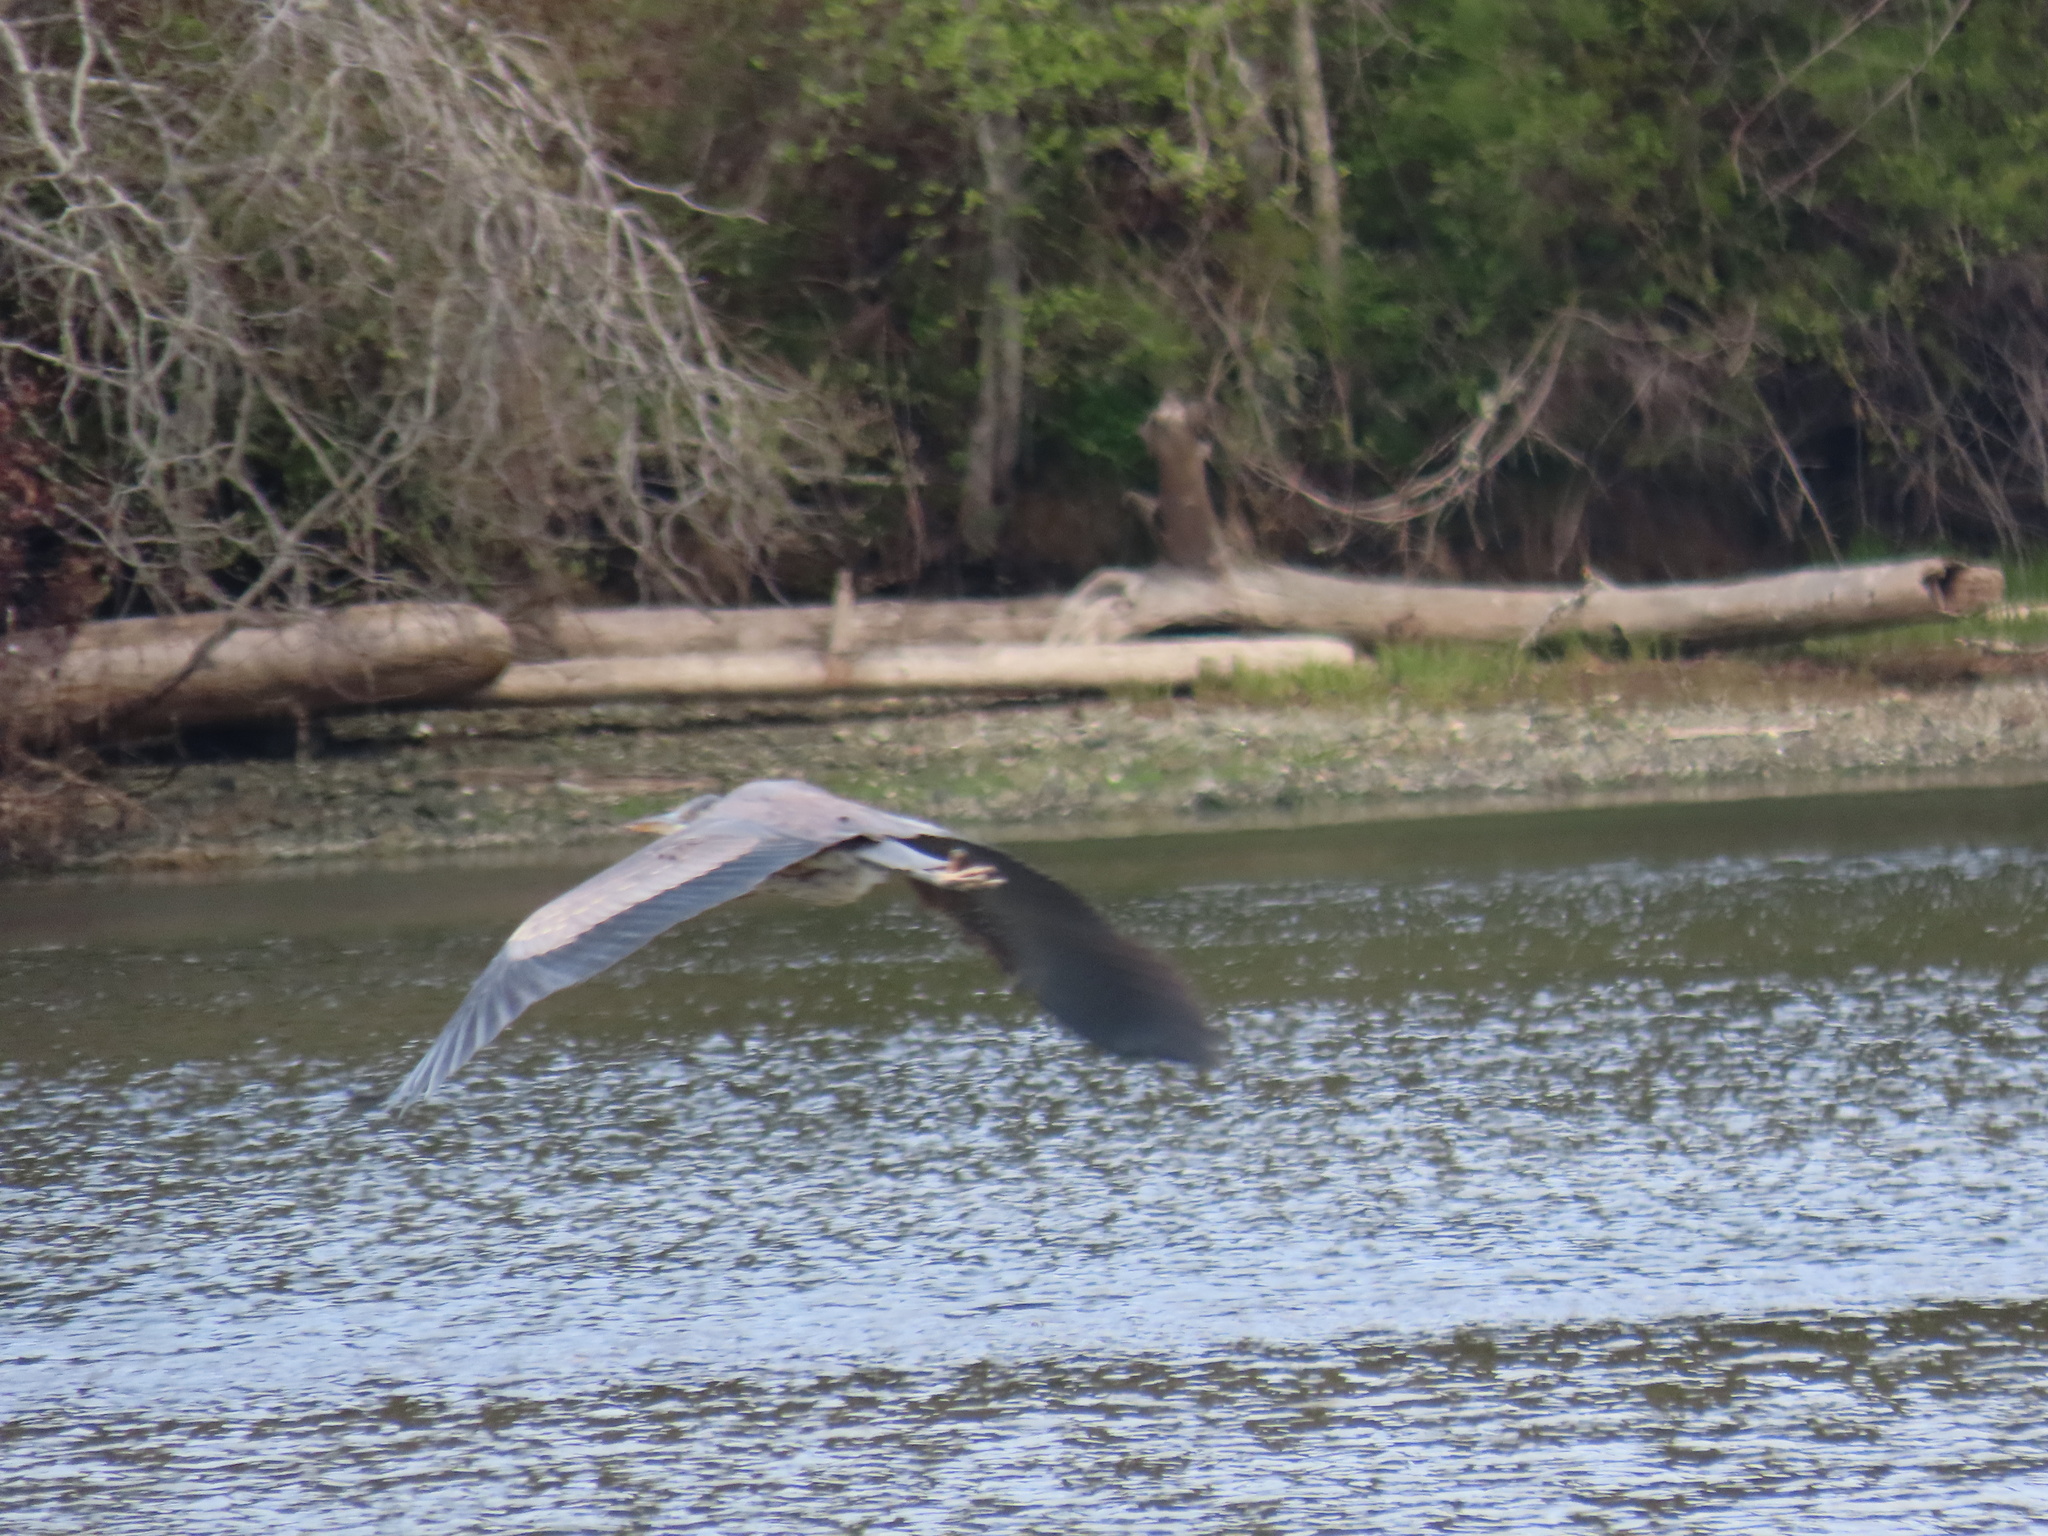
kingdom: Animalia
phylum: Chordata
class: Aves
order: Pelecaniformes
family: Ardeidae
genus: Ardea
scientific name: Ardea herodias
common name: Great blue heron
